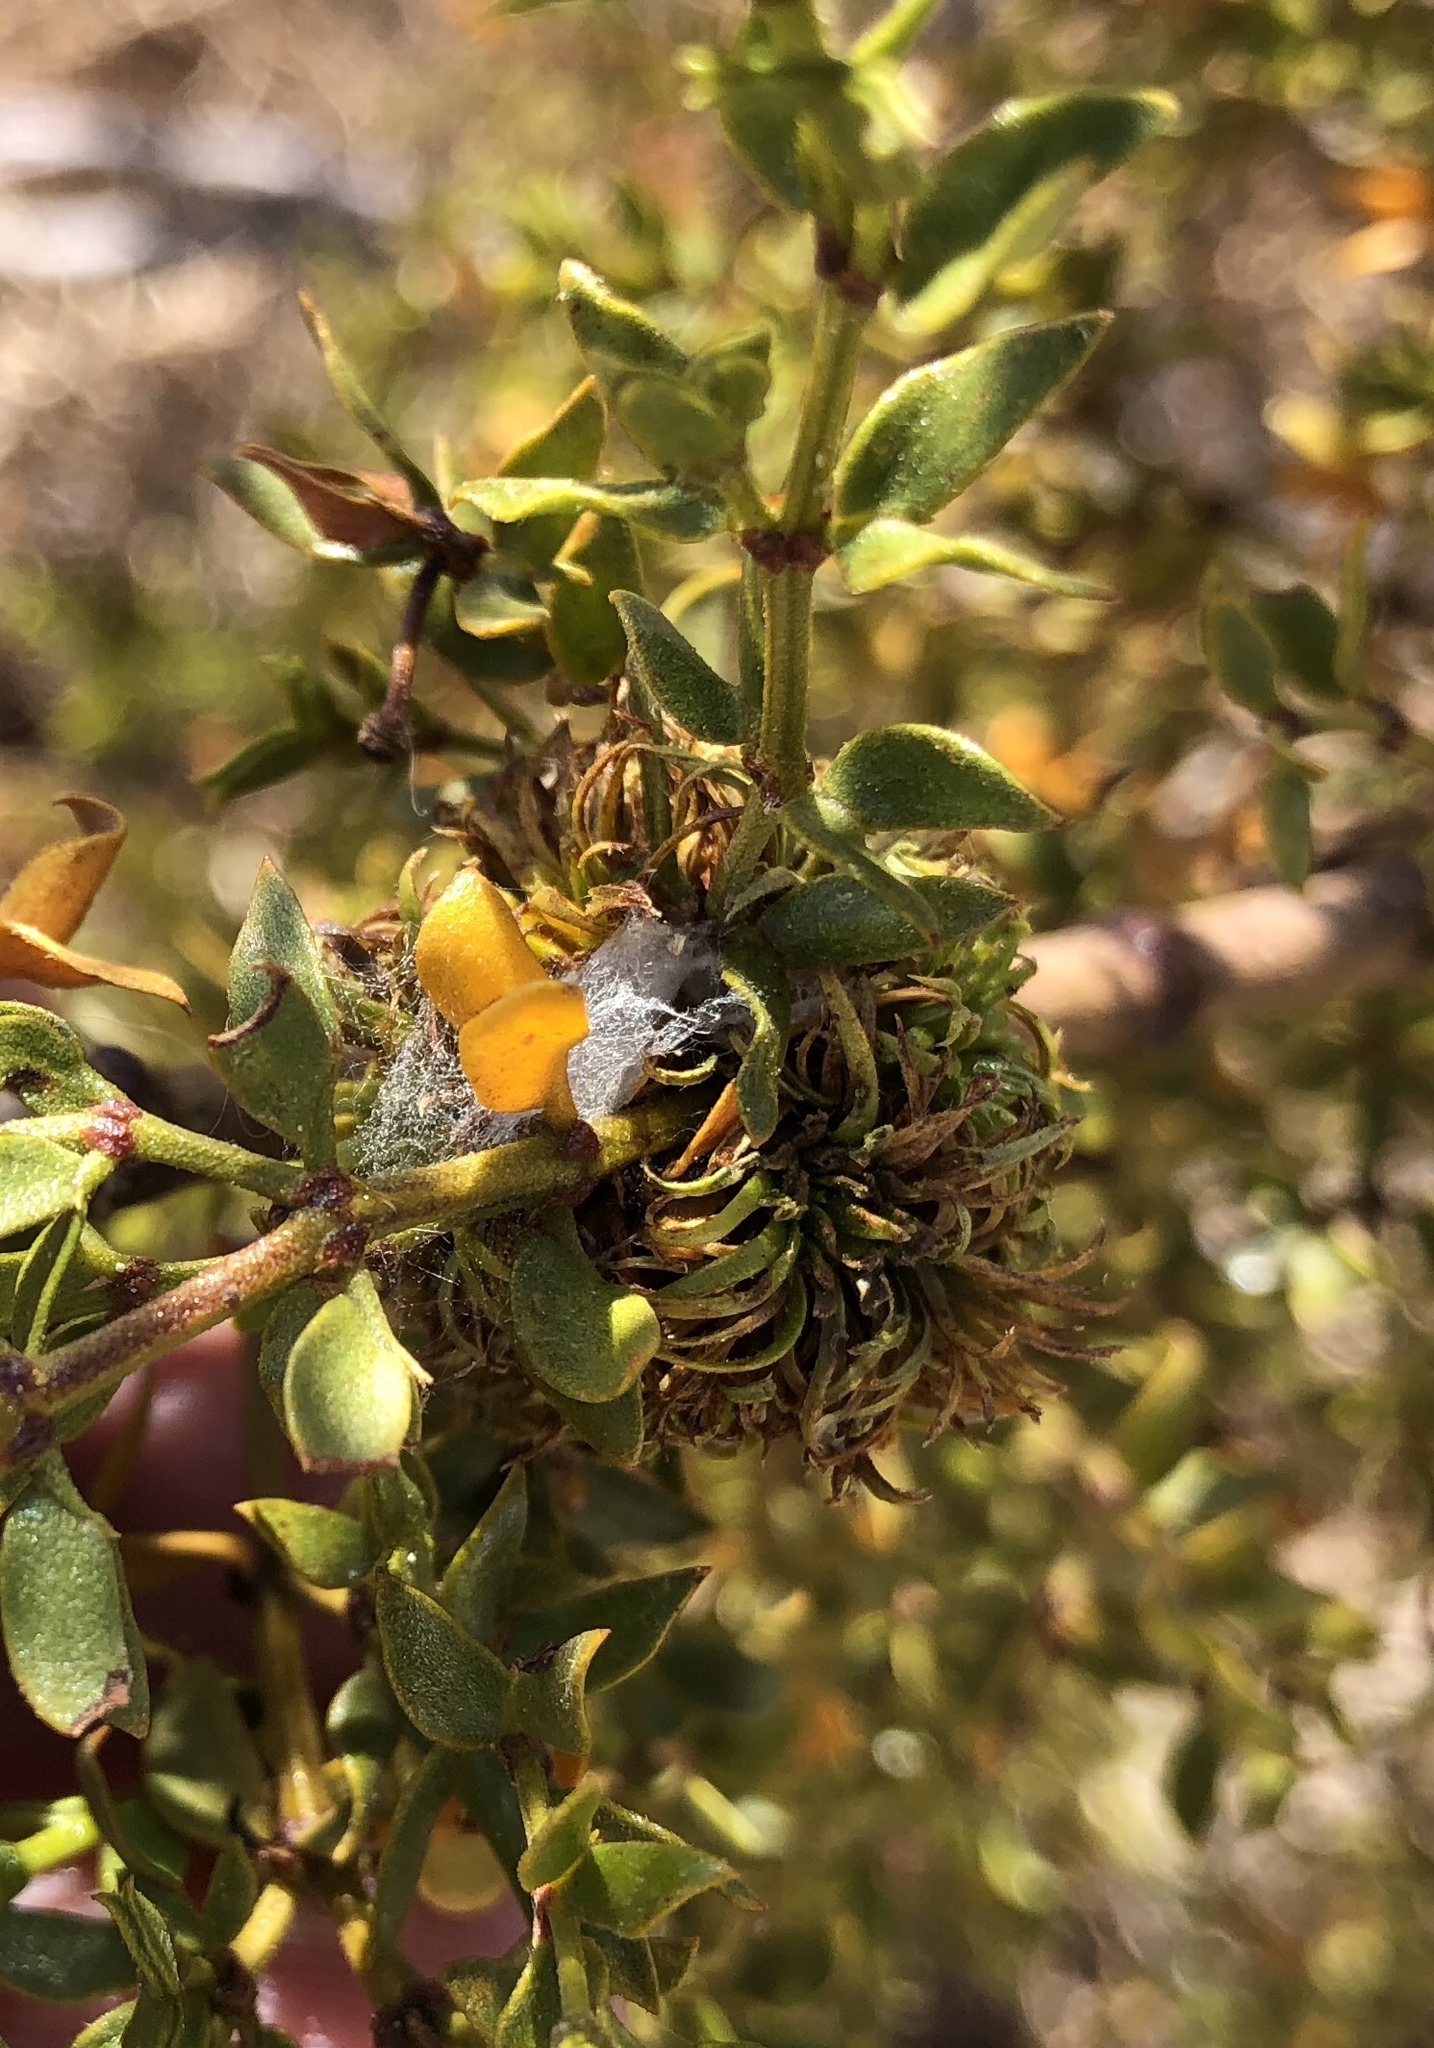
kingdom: Plantae
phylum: Tracheophyta
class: Magnoliopsida
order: Zygophyllales
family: Zygophyllaceae
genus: Larrea
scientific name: Larrea tridentata
